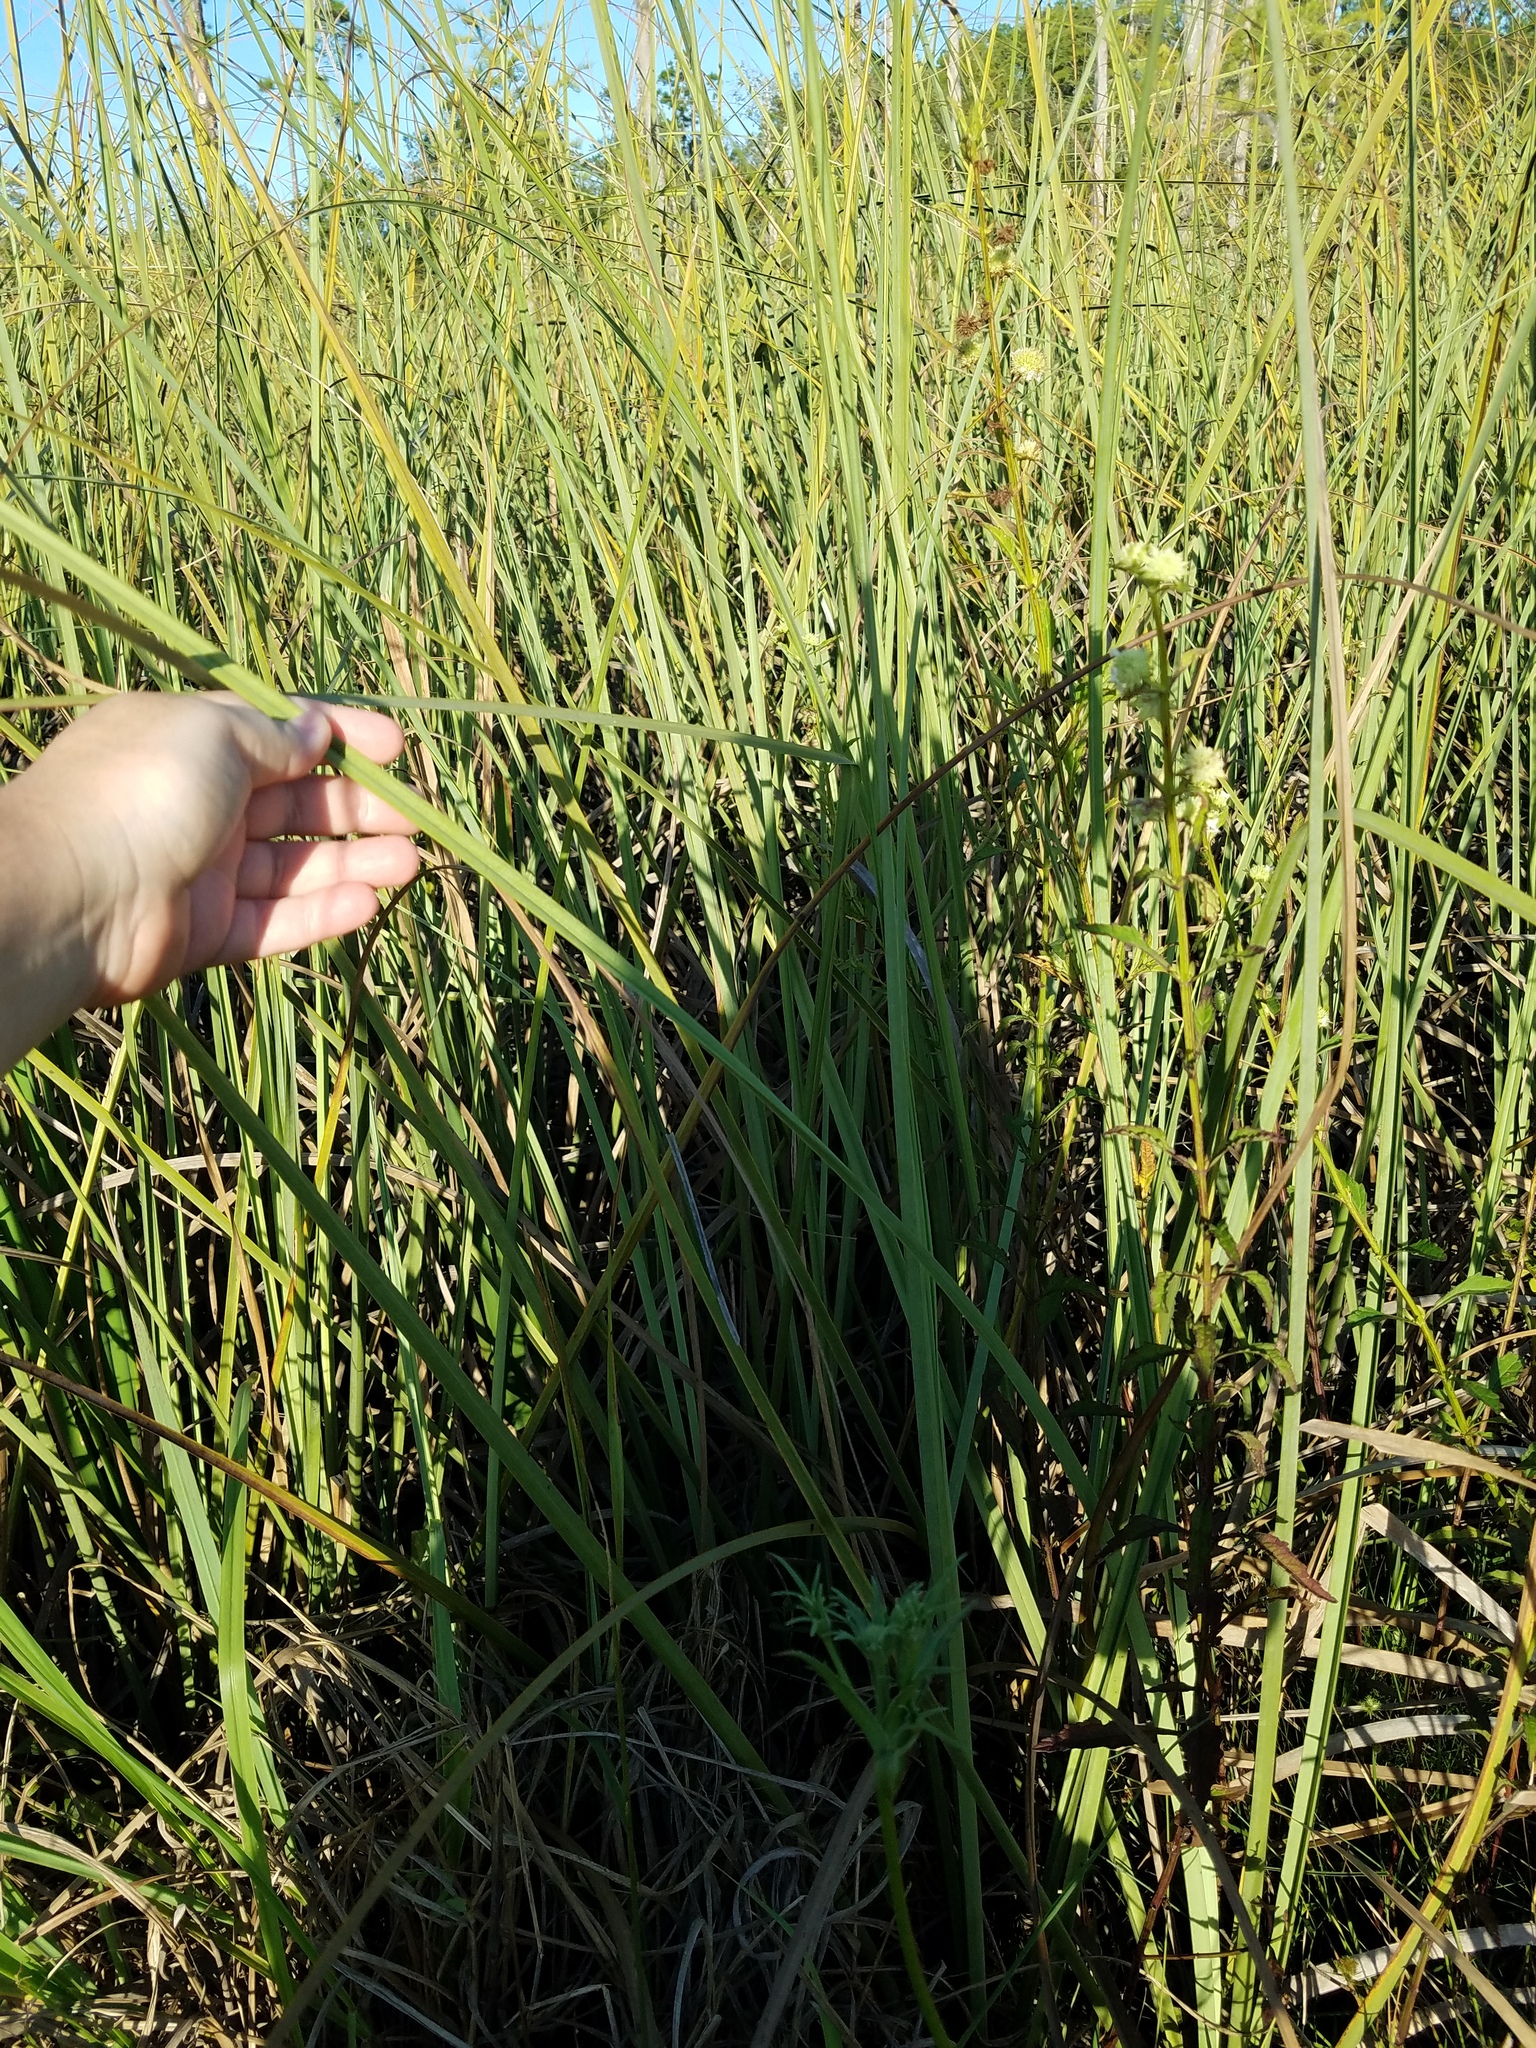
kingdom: Plantae
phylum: Tracheophyta
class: Liliopsida
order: Poales
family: Cyperaceae
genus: Cladium
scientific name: Cladium mariscus
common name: Great fen-sedge
